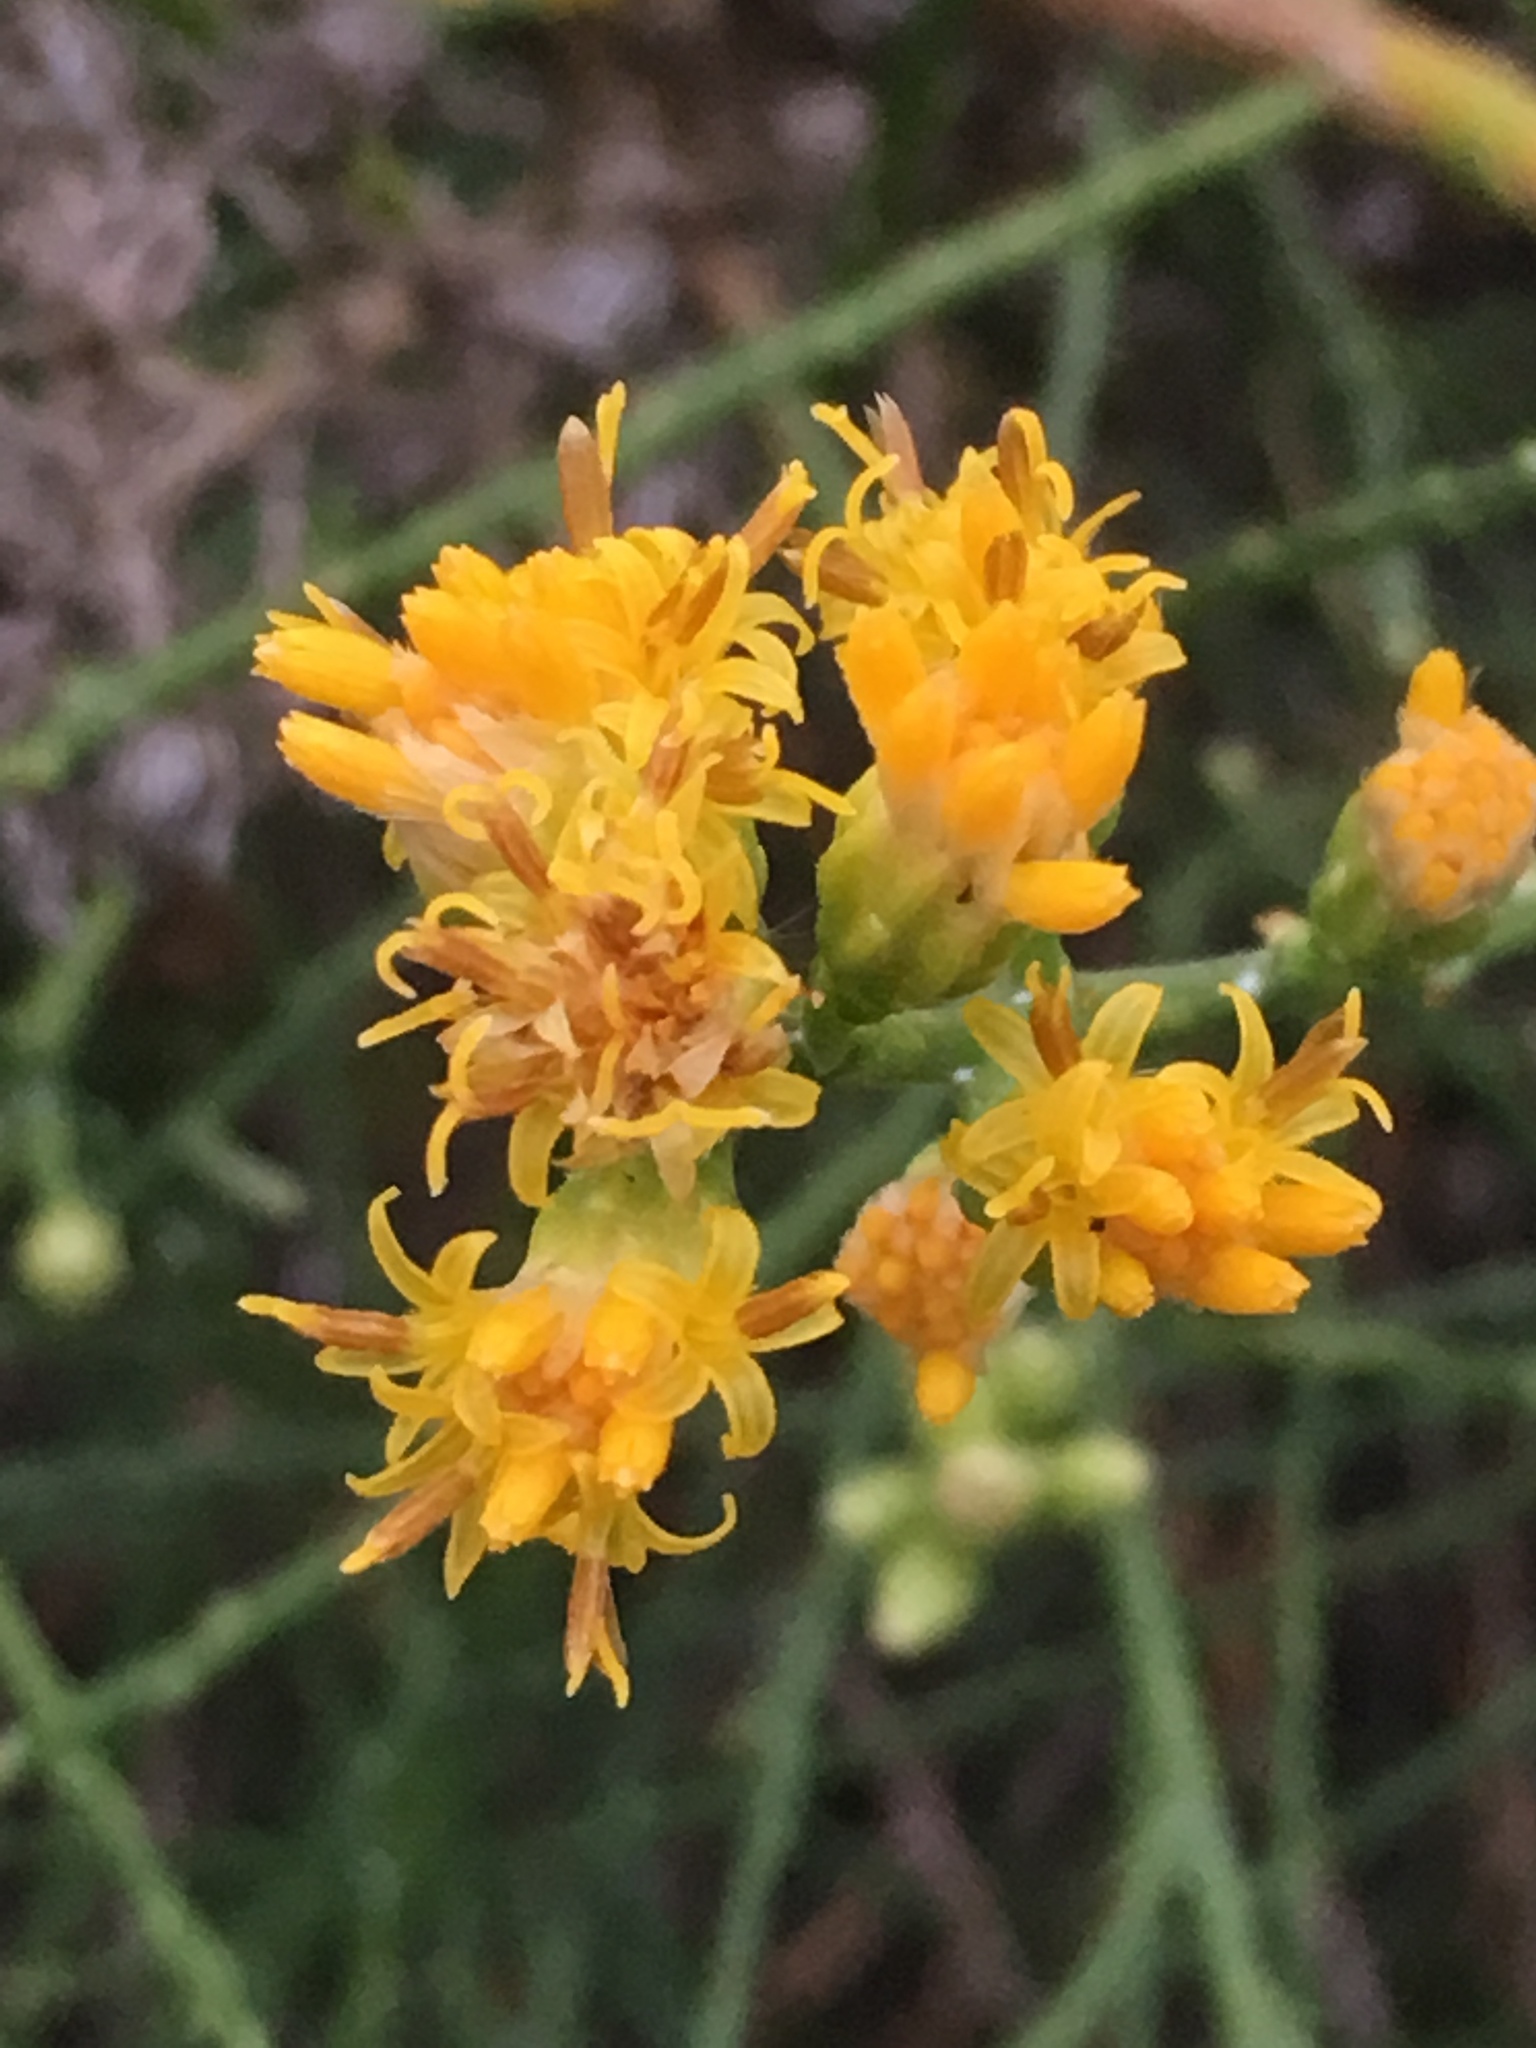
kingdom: Plantae
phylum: Tracheophyta
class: Magnoliopsida
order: Asterales
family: Asteraceae
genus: Lepidospartum
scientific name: Lepidospartum squamatum
